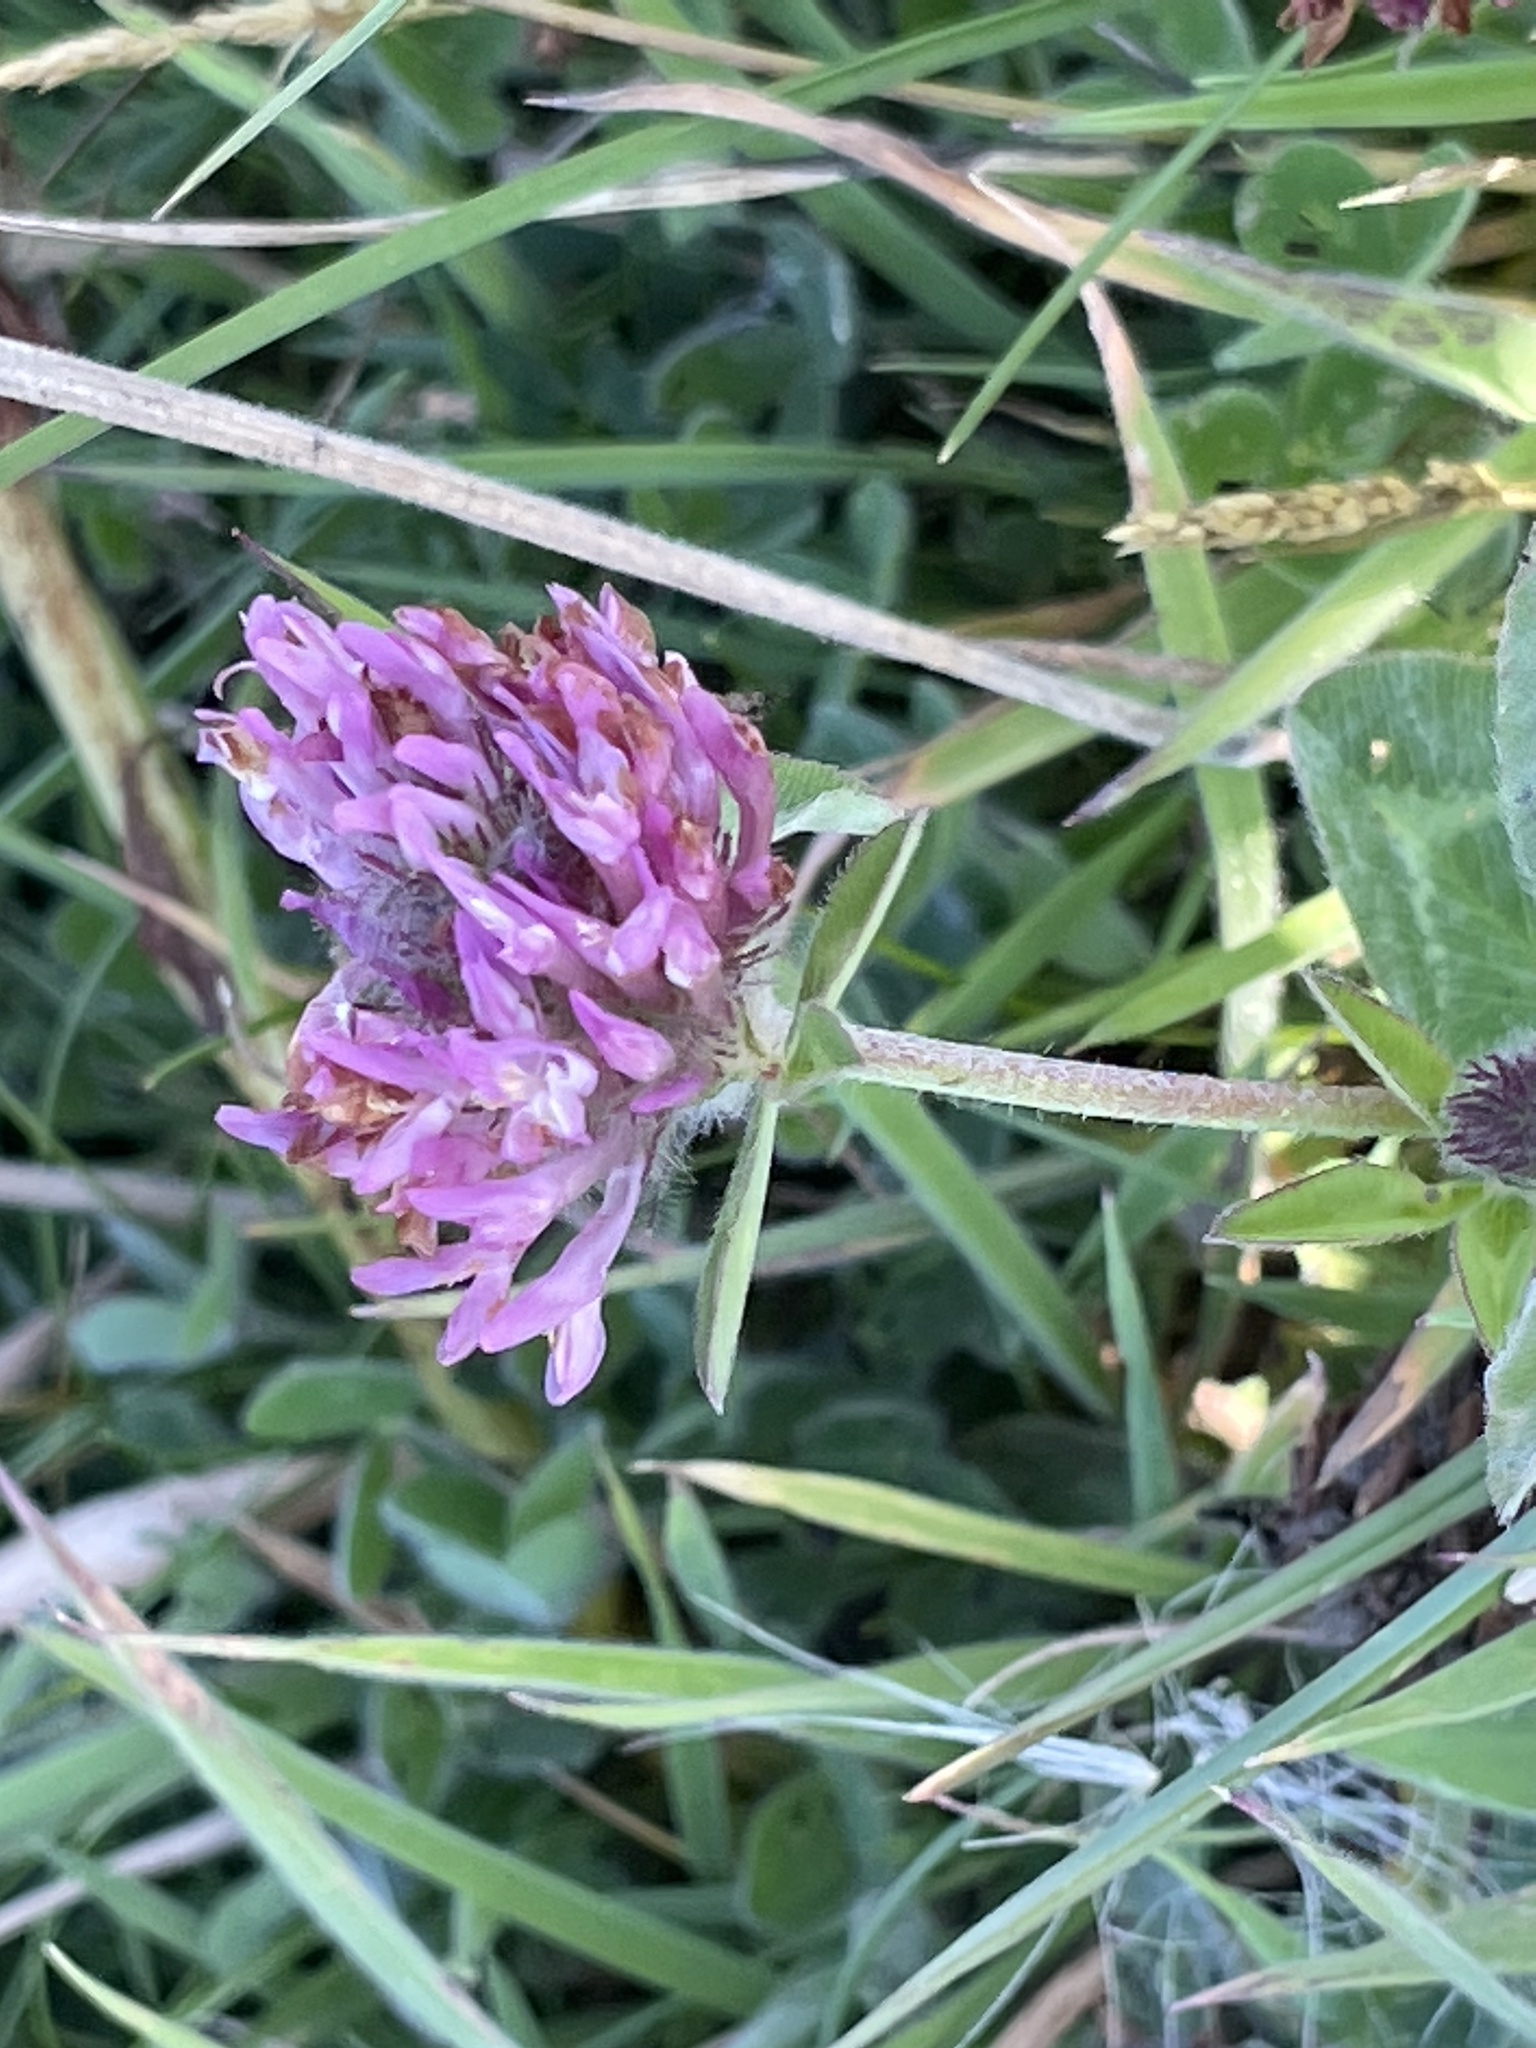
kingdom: Plantae
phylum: Tracheophyta
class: Magnoliopsida
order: Fabales
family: Fabaceae
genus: Trifolium
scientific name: Trifolium pratense
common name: Red clover
